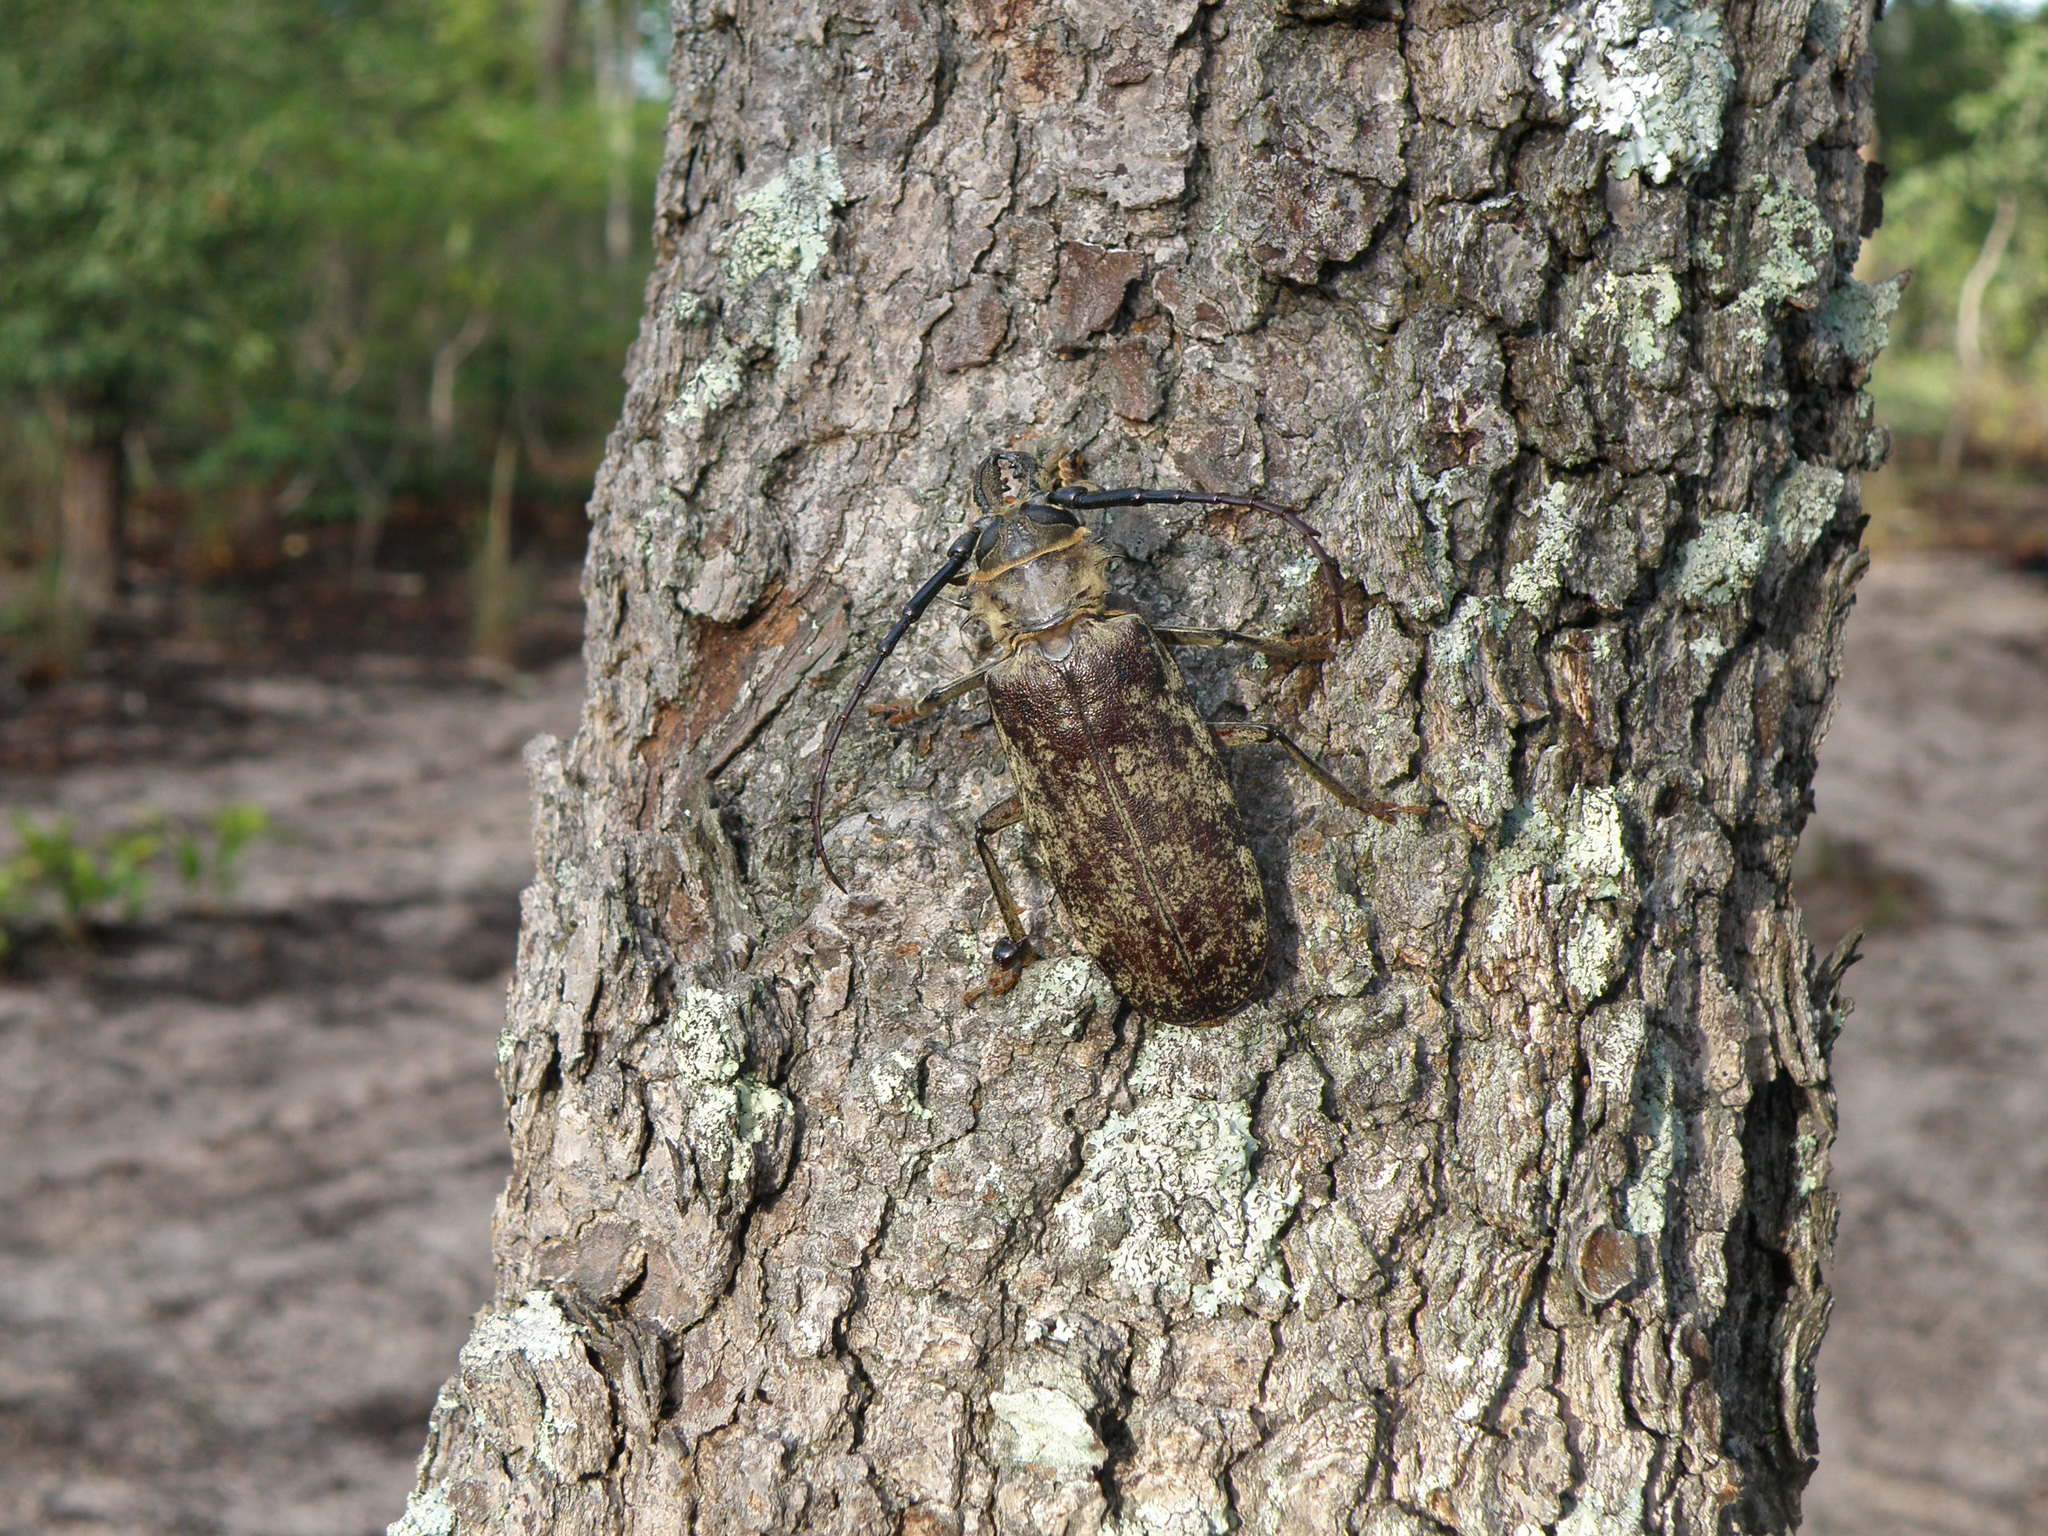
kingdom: Animalia
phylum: Arthropoda
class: Insecta
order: Coleoptera
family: Cerambycidae
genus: Tithoes
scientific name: Tithoes maculatus
